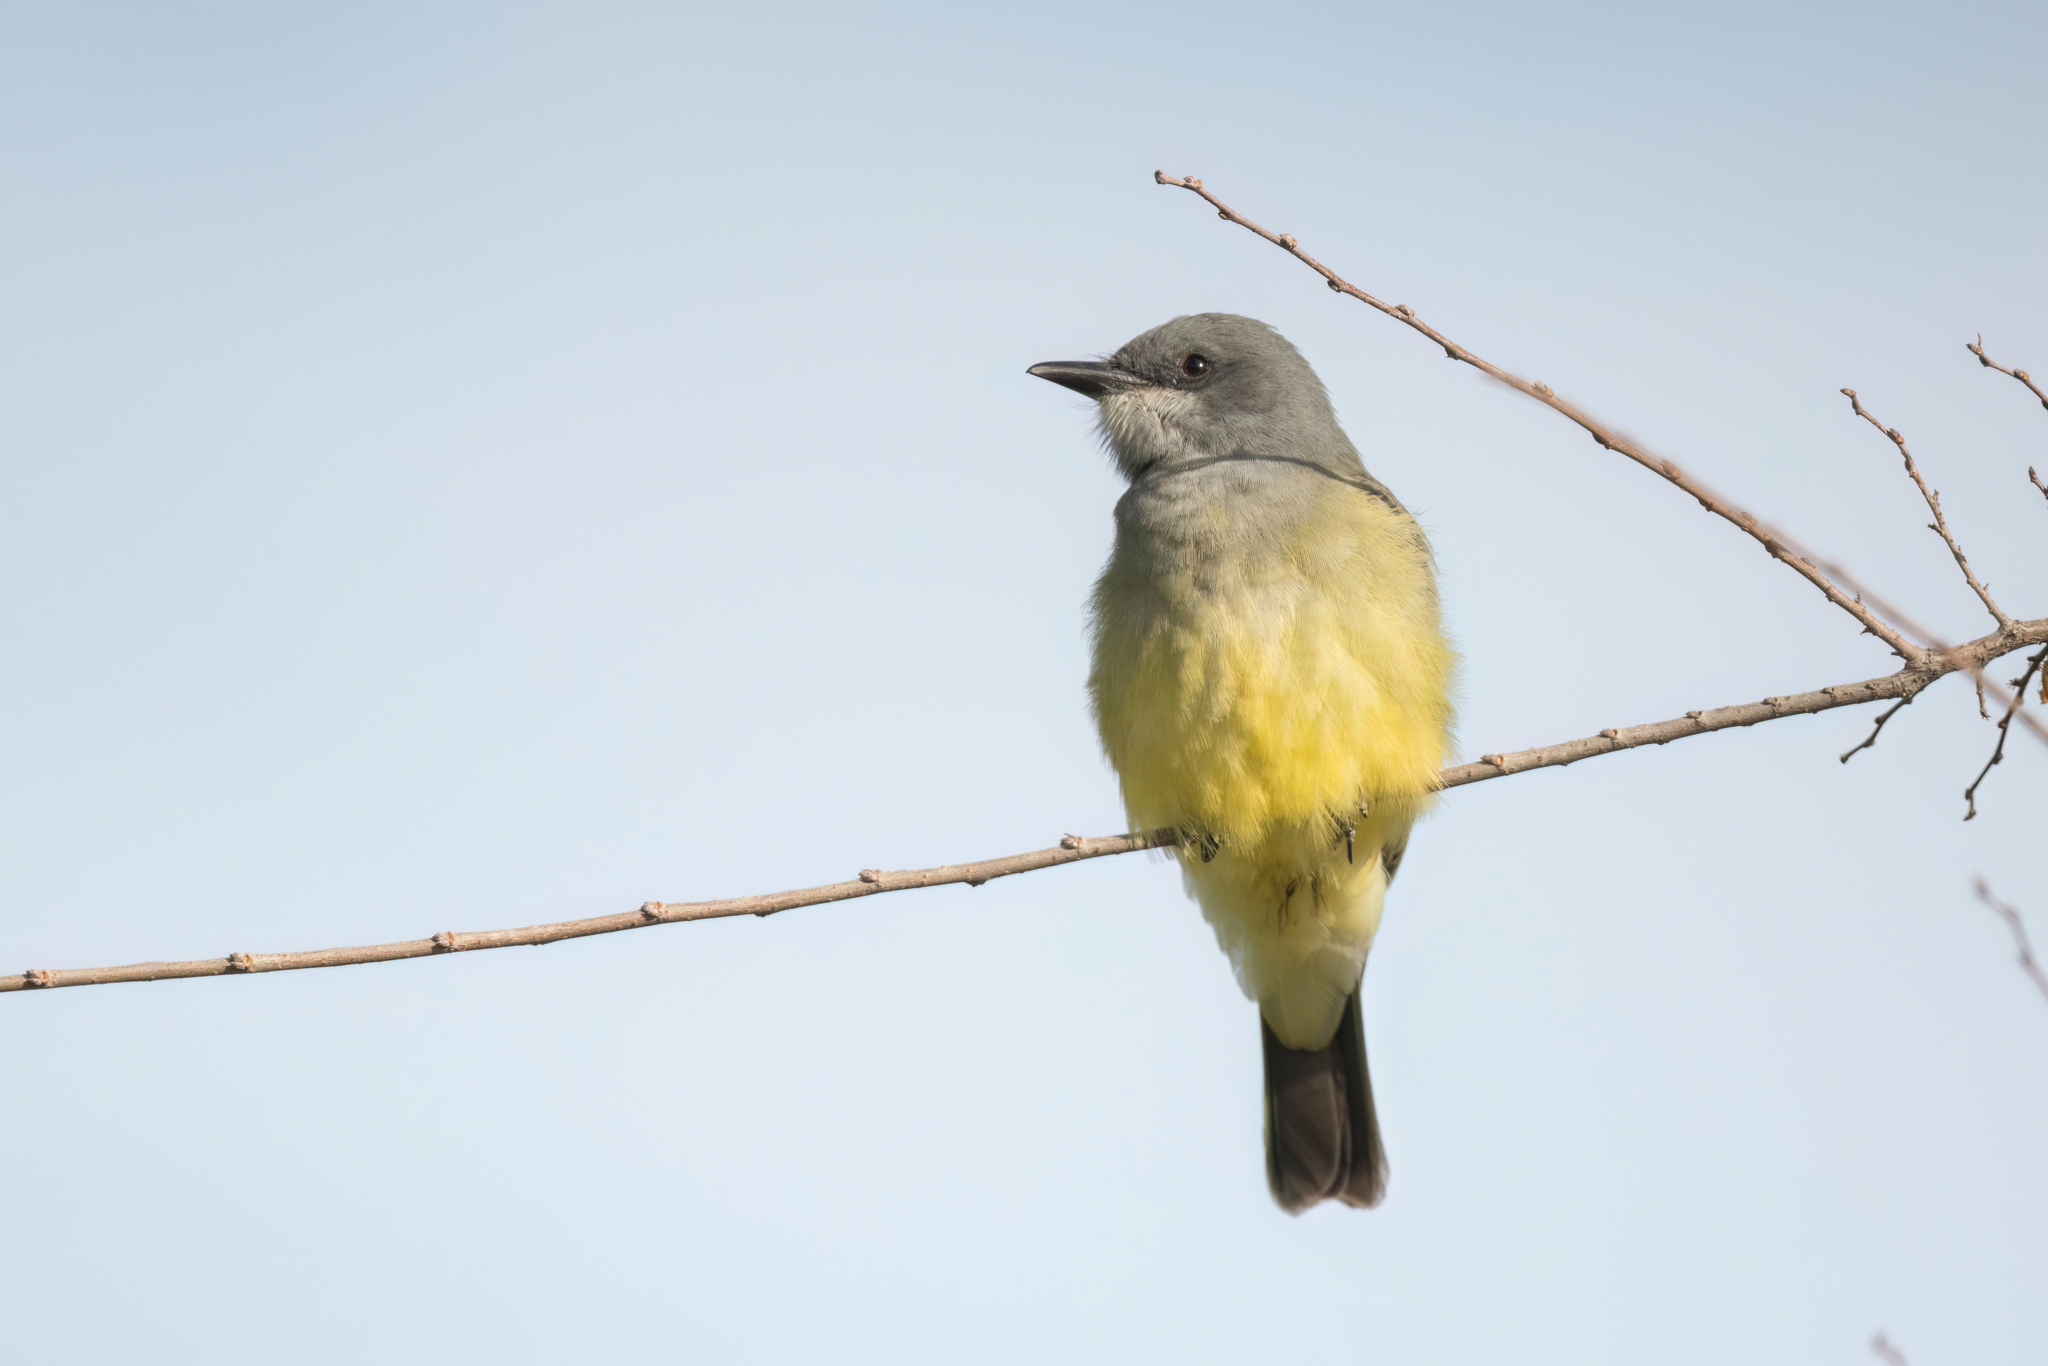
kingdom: Animalia
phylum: Chordata
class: Aves
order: Passeriformes
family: Tyrannidae
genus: Tyrannus
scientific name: Tyrannus vociferans
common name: Cassin's kingbird
